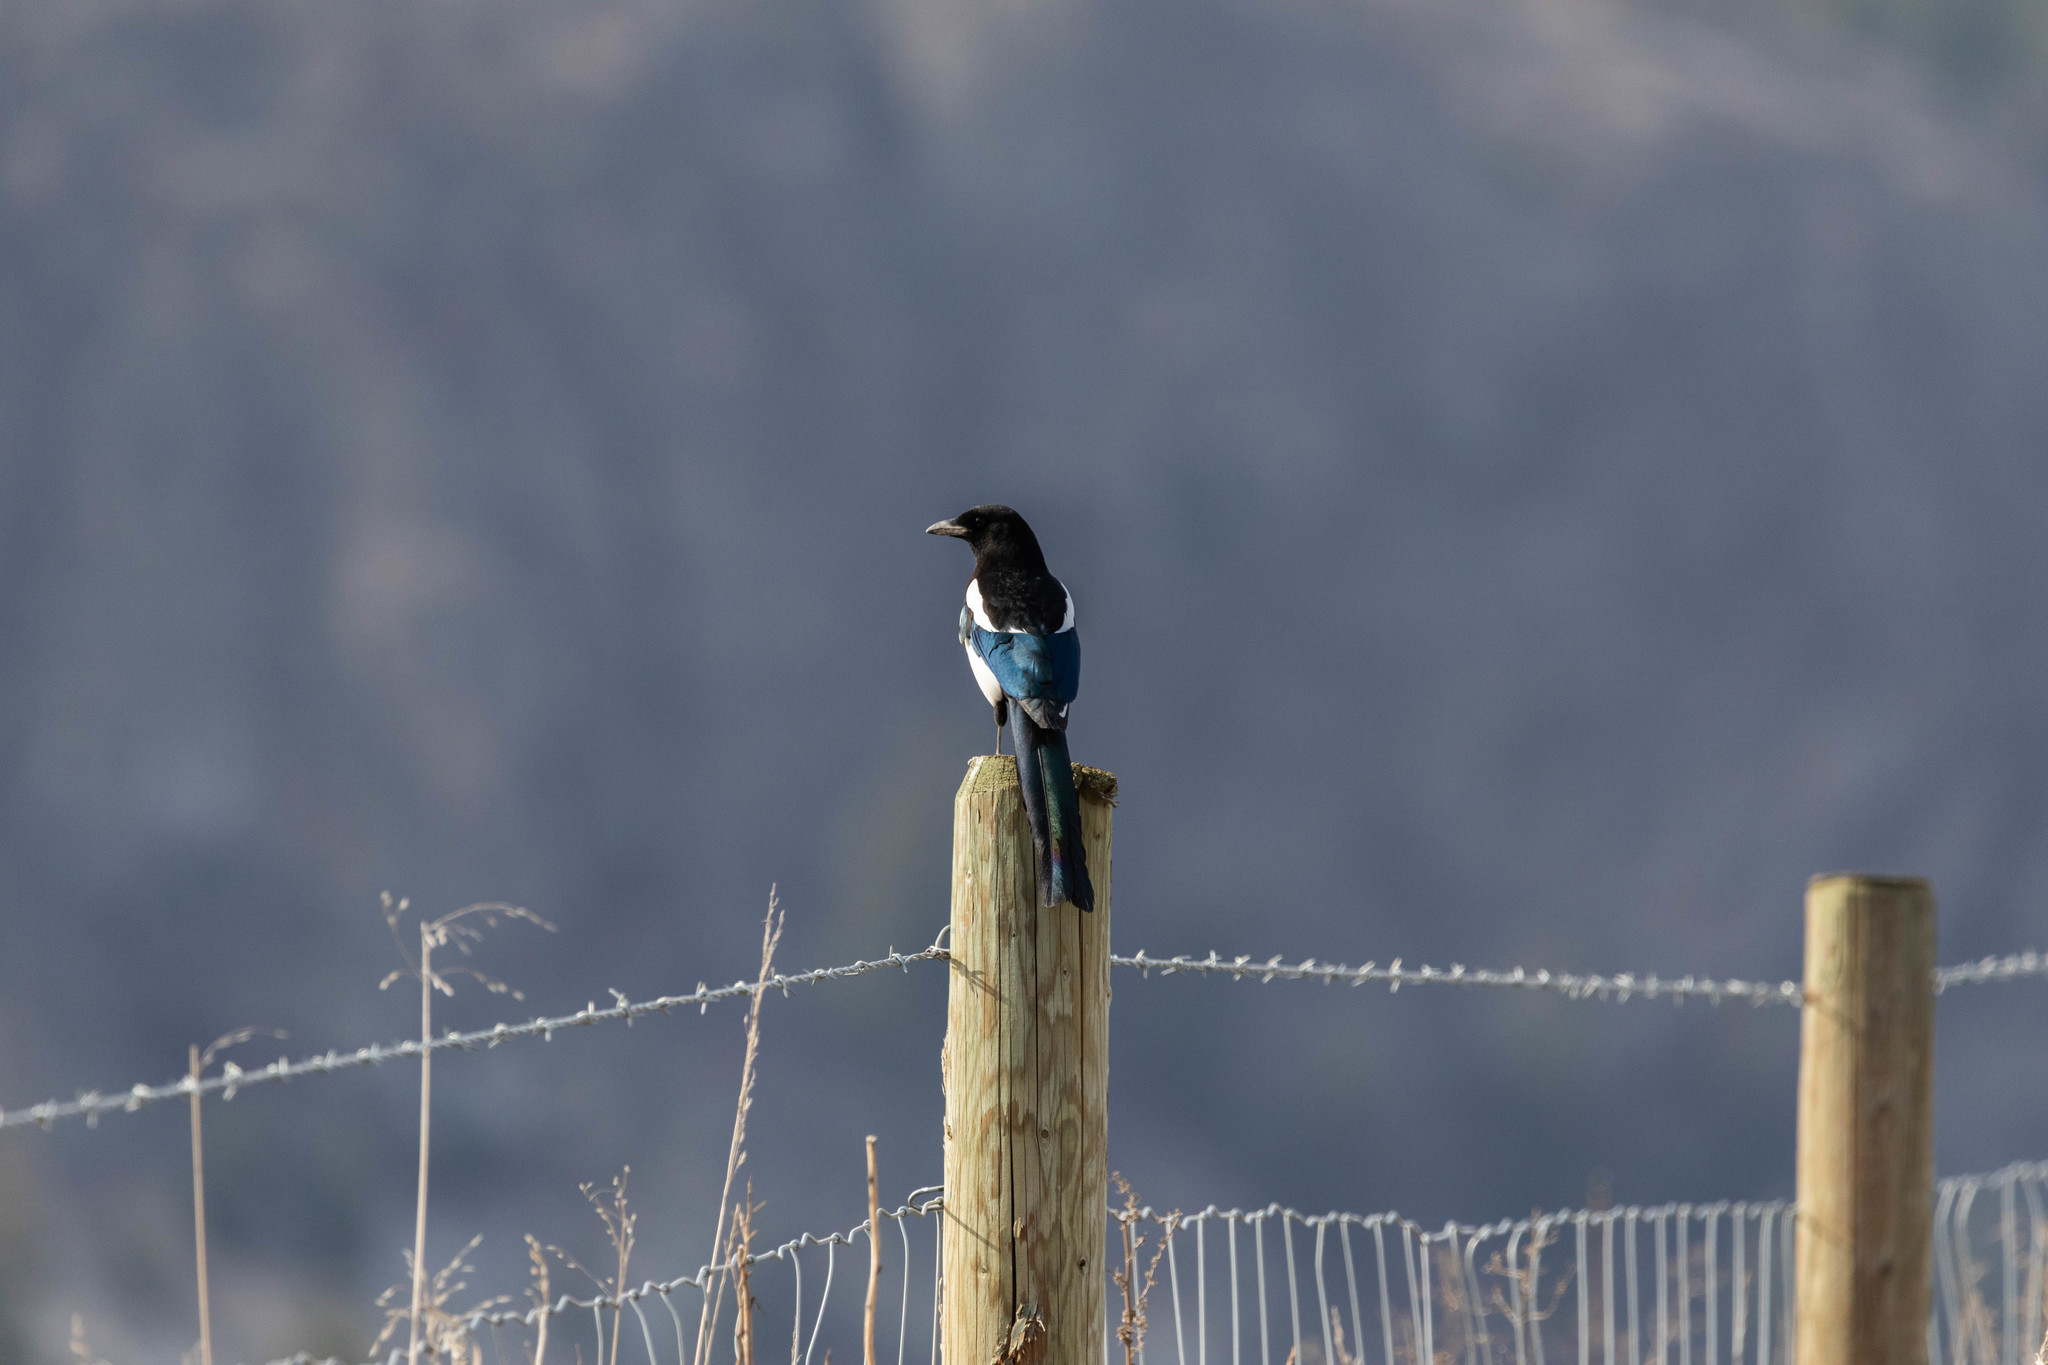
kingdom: Animalia
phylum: Chordata
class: Aves
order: Passeriformes
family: Corvidae
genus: Pica
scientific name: Pica hudsonia
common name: Black-billed magpie
